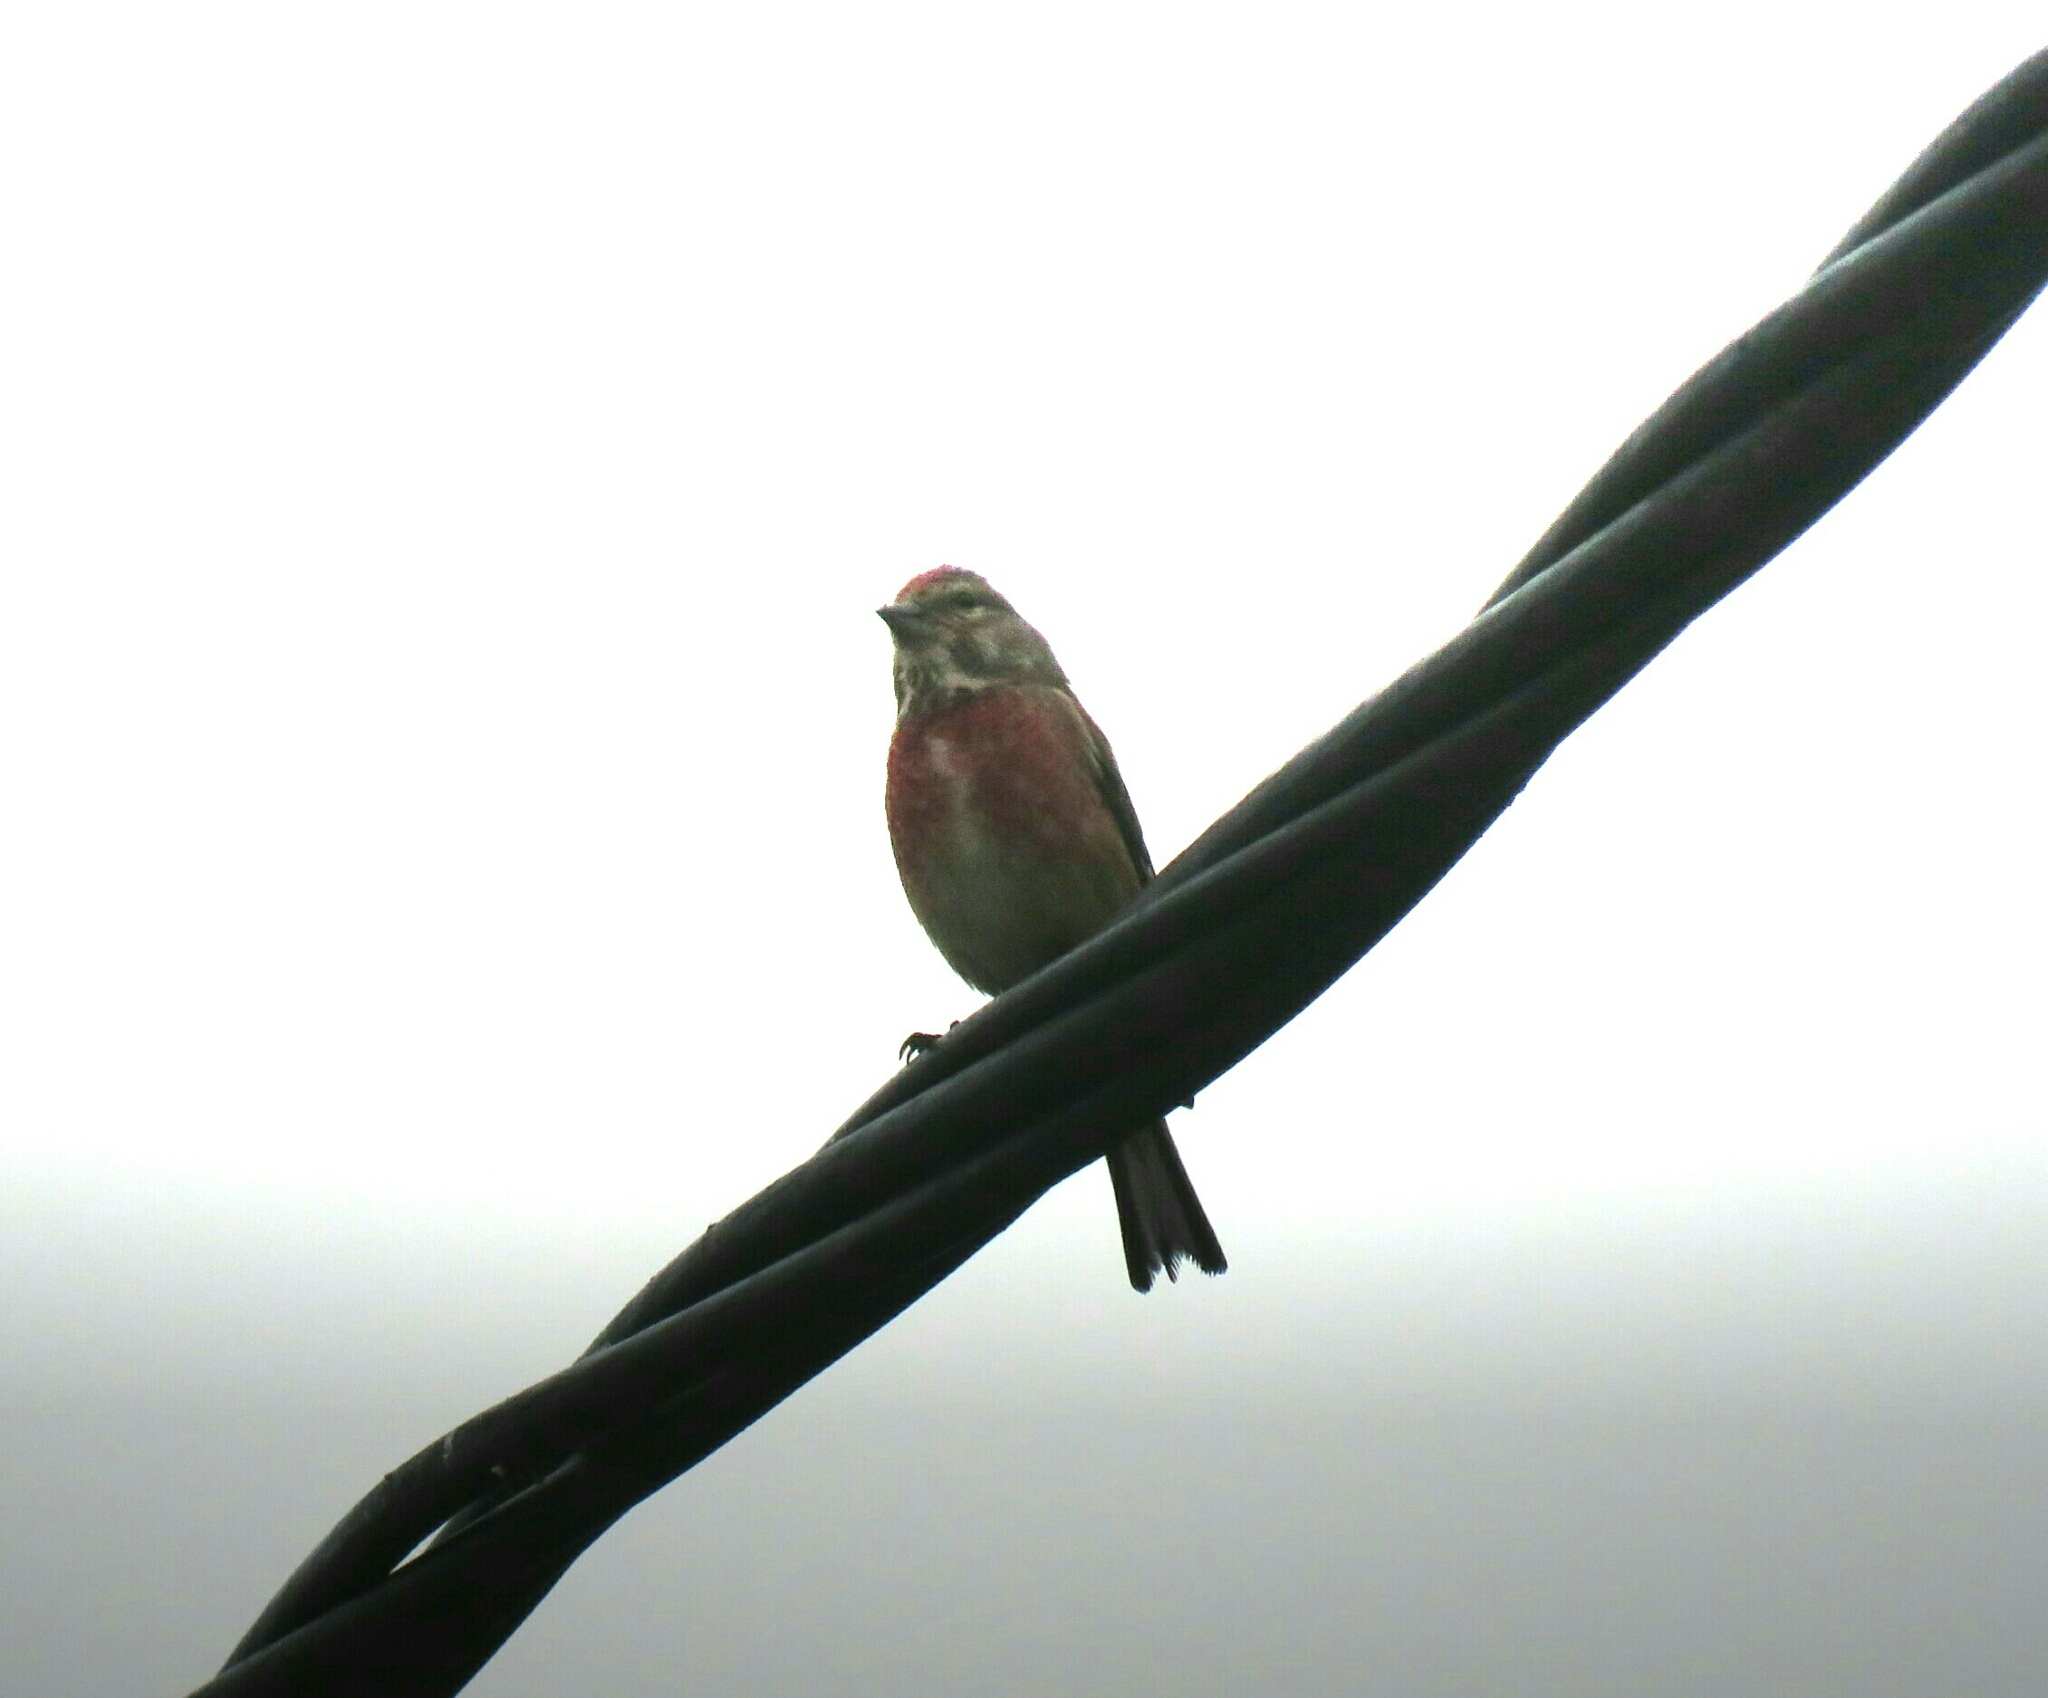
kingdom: Animalia
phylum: Chordata
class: Aves
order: Passeriformes
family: Fringillidae
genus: Linaria
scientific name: Linaria cannabina
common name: Common linnet
